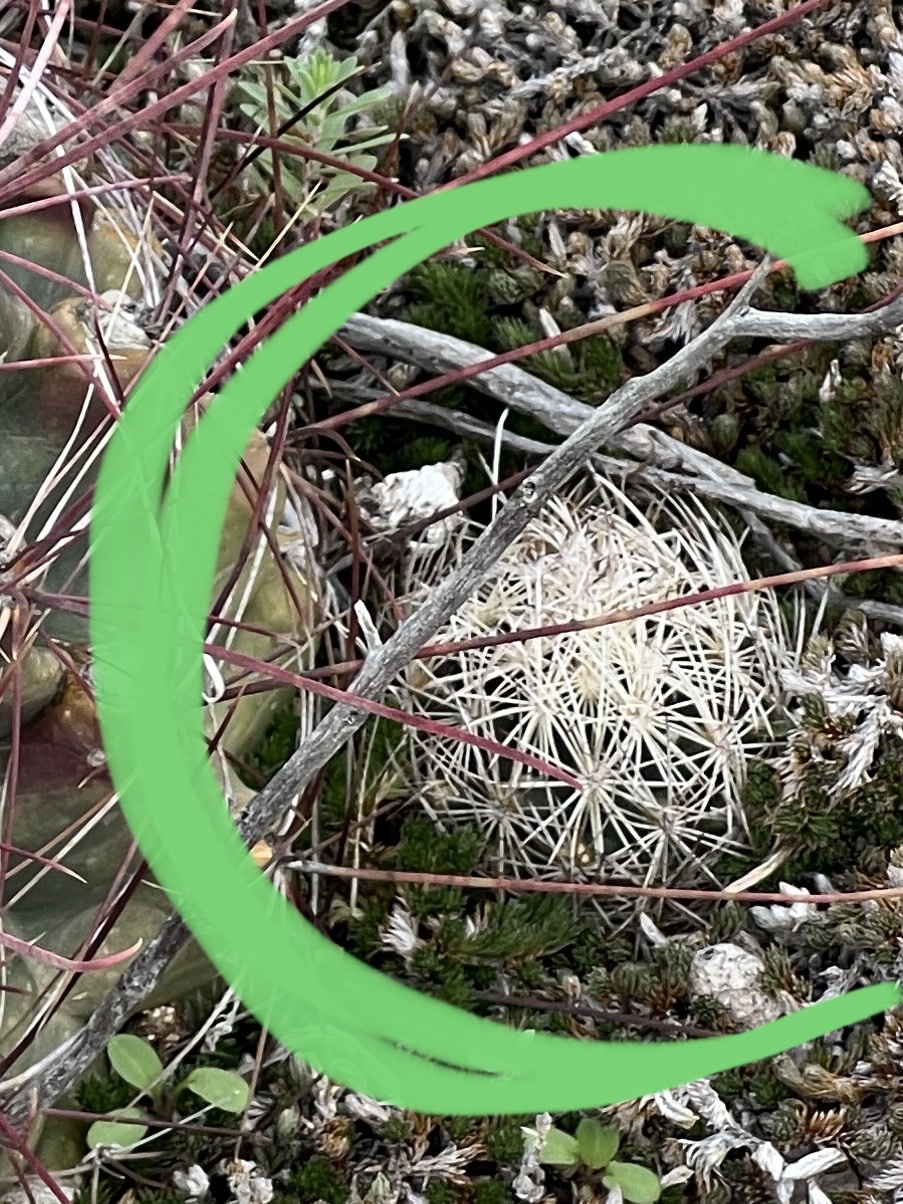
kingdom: Plantae
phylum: Tracheophyta
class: Magnoliopsida
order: Caryophyllales
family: Cactaceae
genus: Coryphantha
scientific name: Coryphantha echinus
